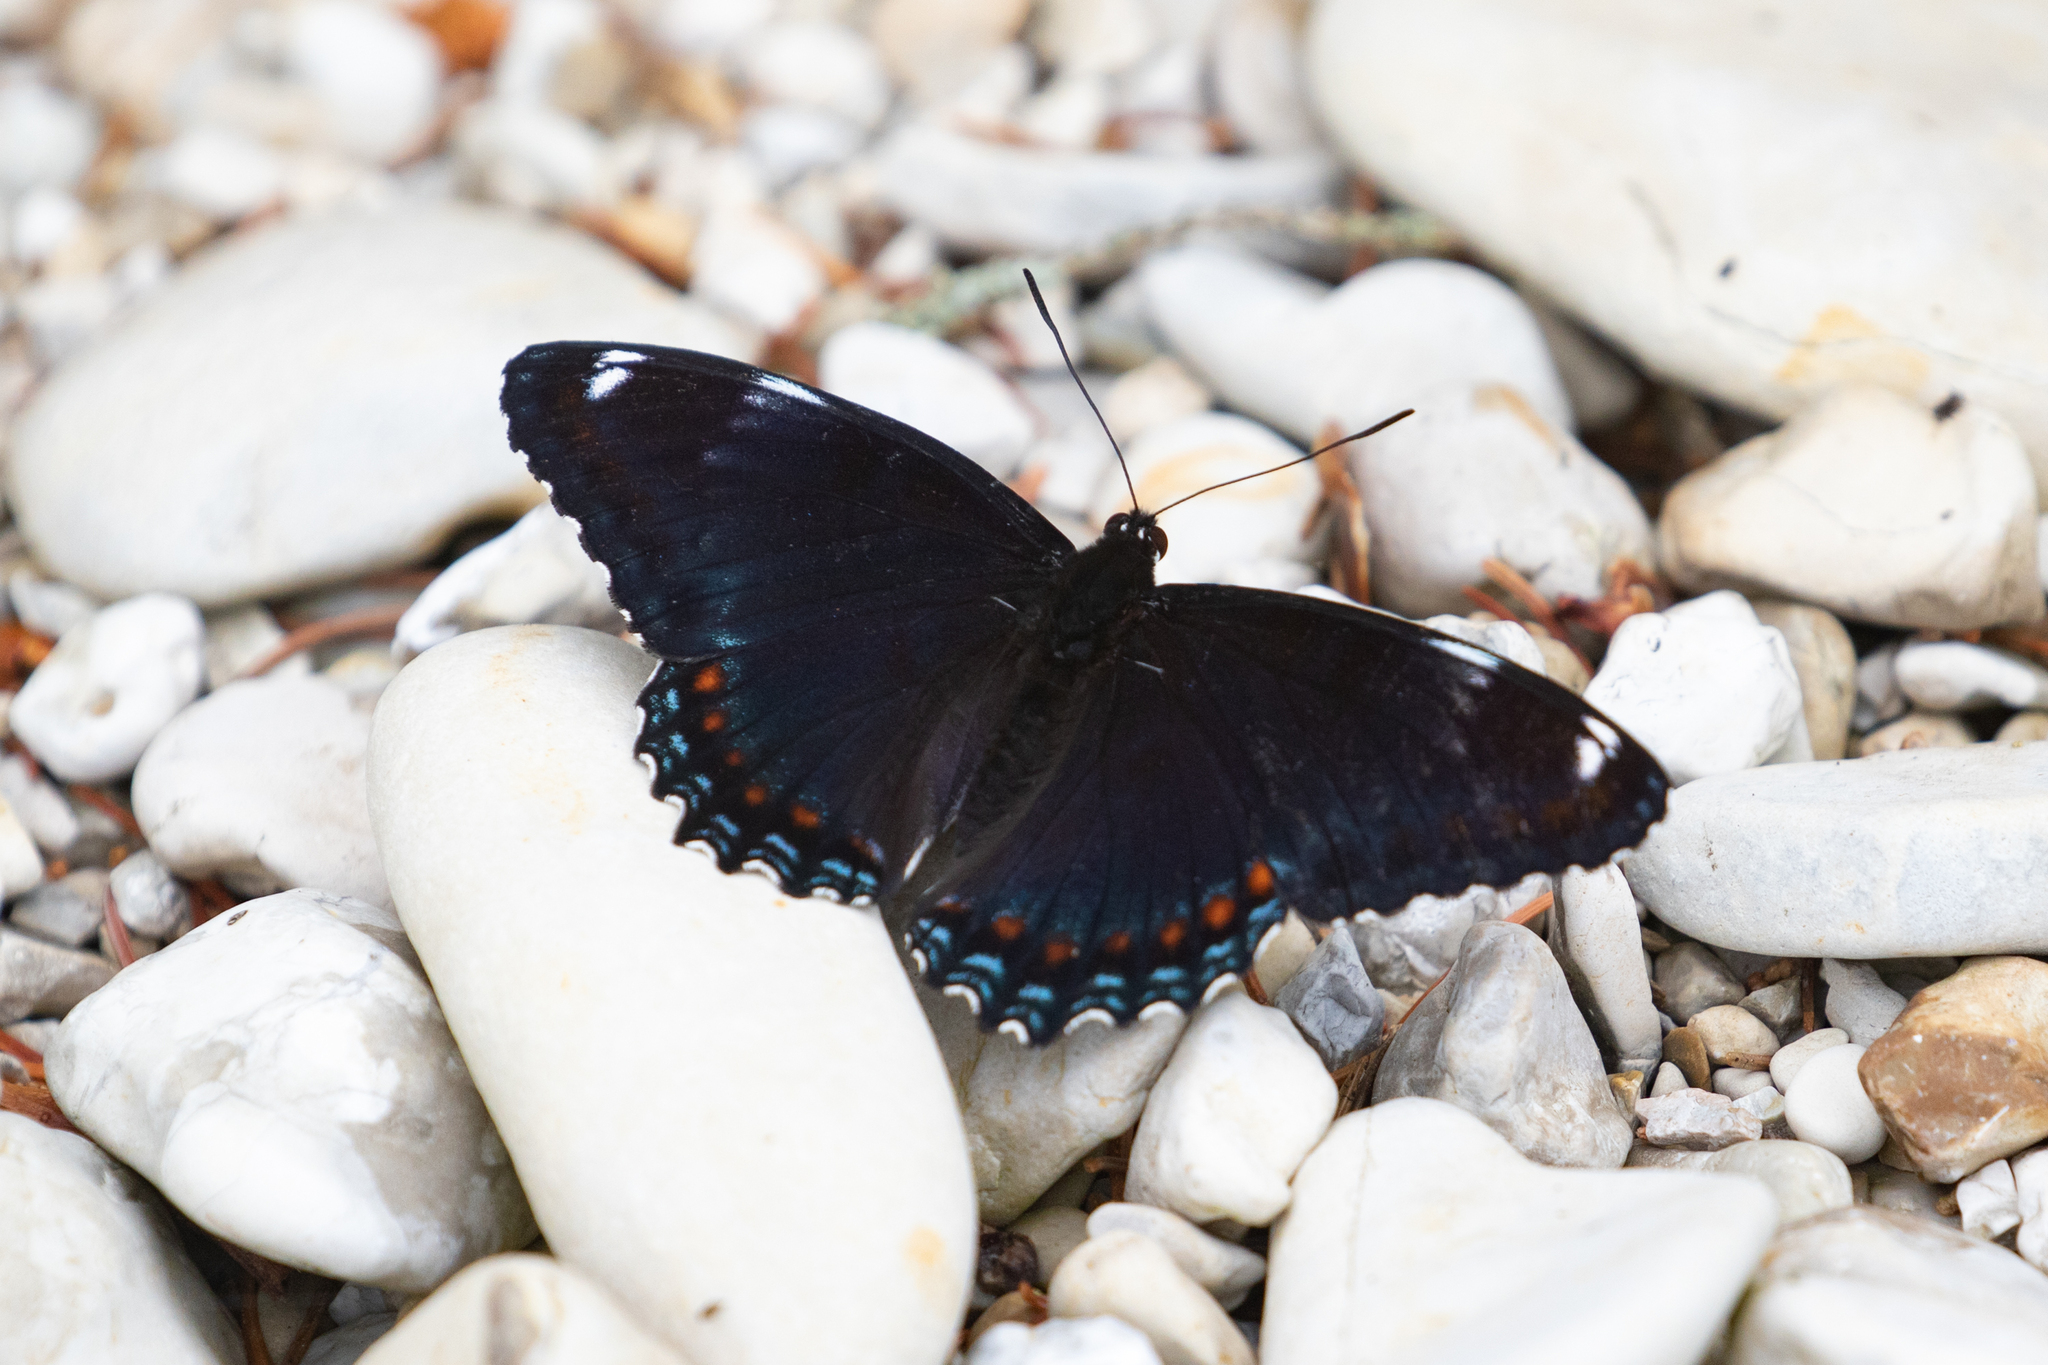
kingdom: Animalia
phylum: Arthropoda
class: Insecta
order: Lepidoptera
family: Nymphalidae
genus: Limenitis
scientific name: Limenitis
